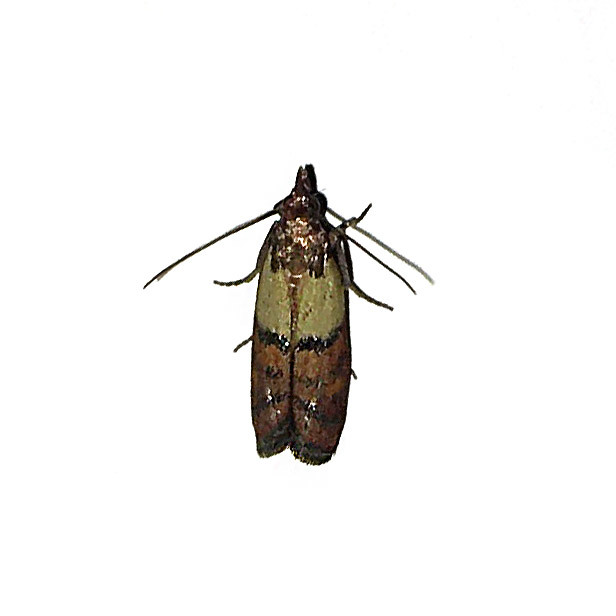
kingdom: Animalia
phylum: Arthropoda
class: Insecta
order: Lepidoptera
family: Pyralidae
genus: Plodia
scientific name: Plodia interpunctella
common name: Indian meal moth
